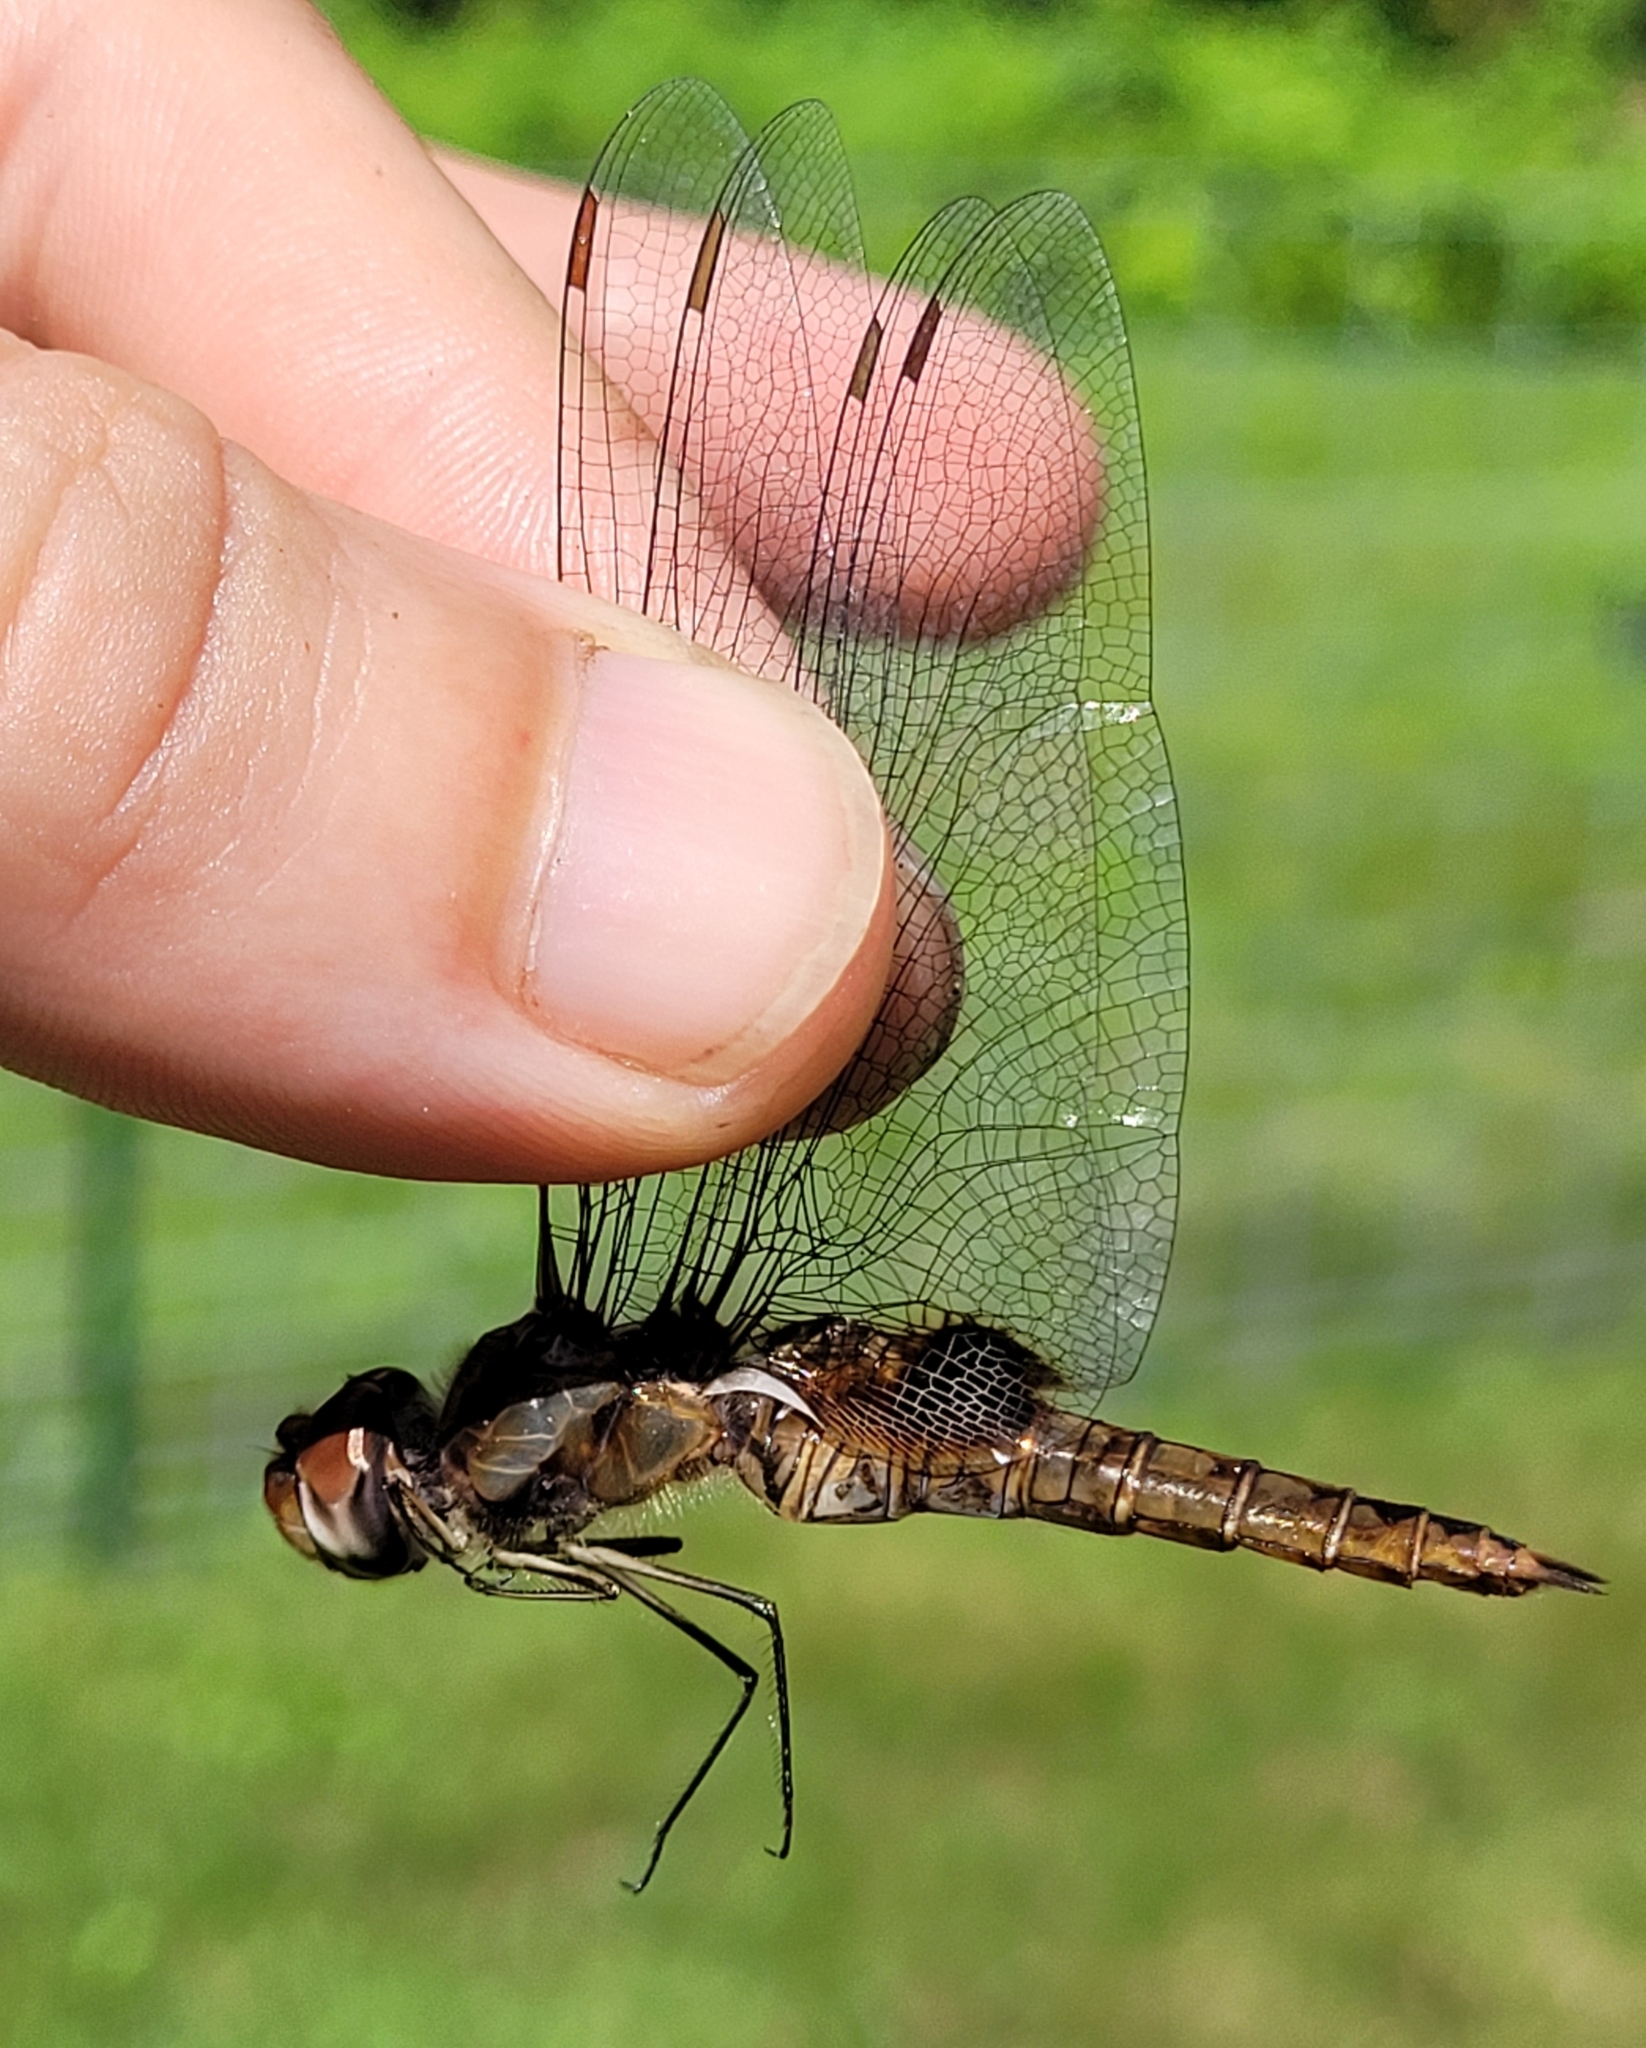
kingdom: Animalia
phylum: Arthropoda
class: Insecta
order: Odonata
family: Libellulidae
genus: Pantala
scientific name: Pantala hymenaea
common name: Spot-winged glider
